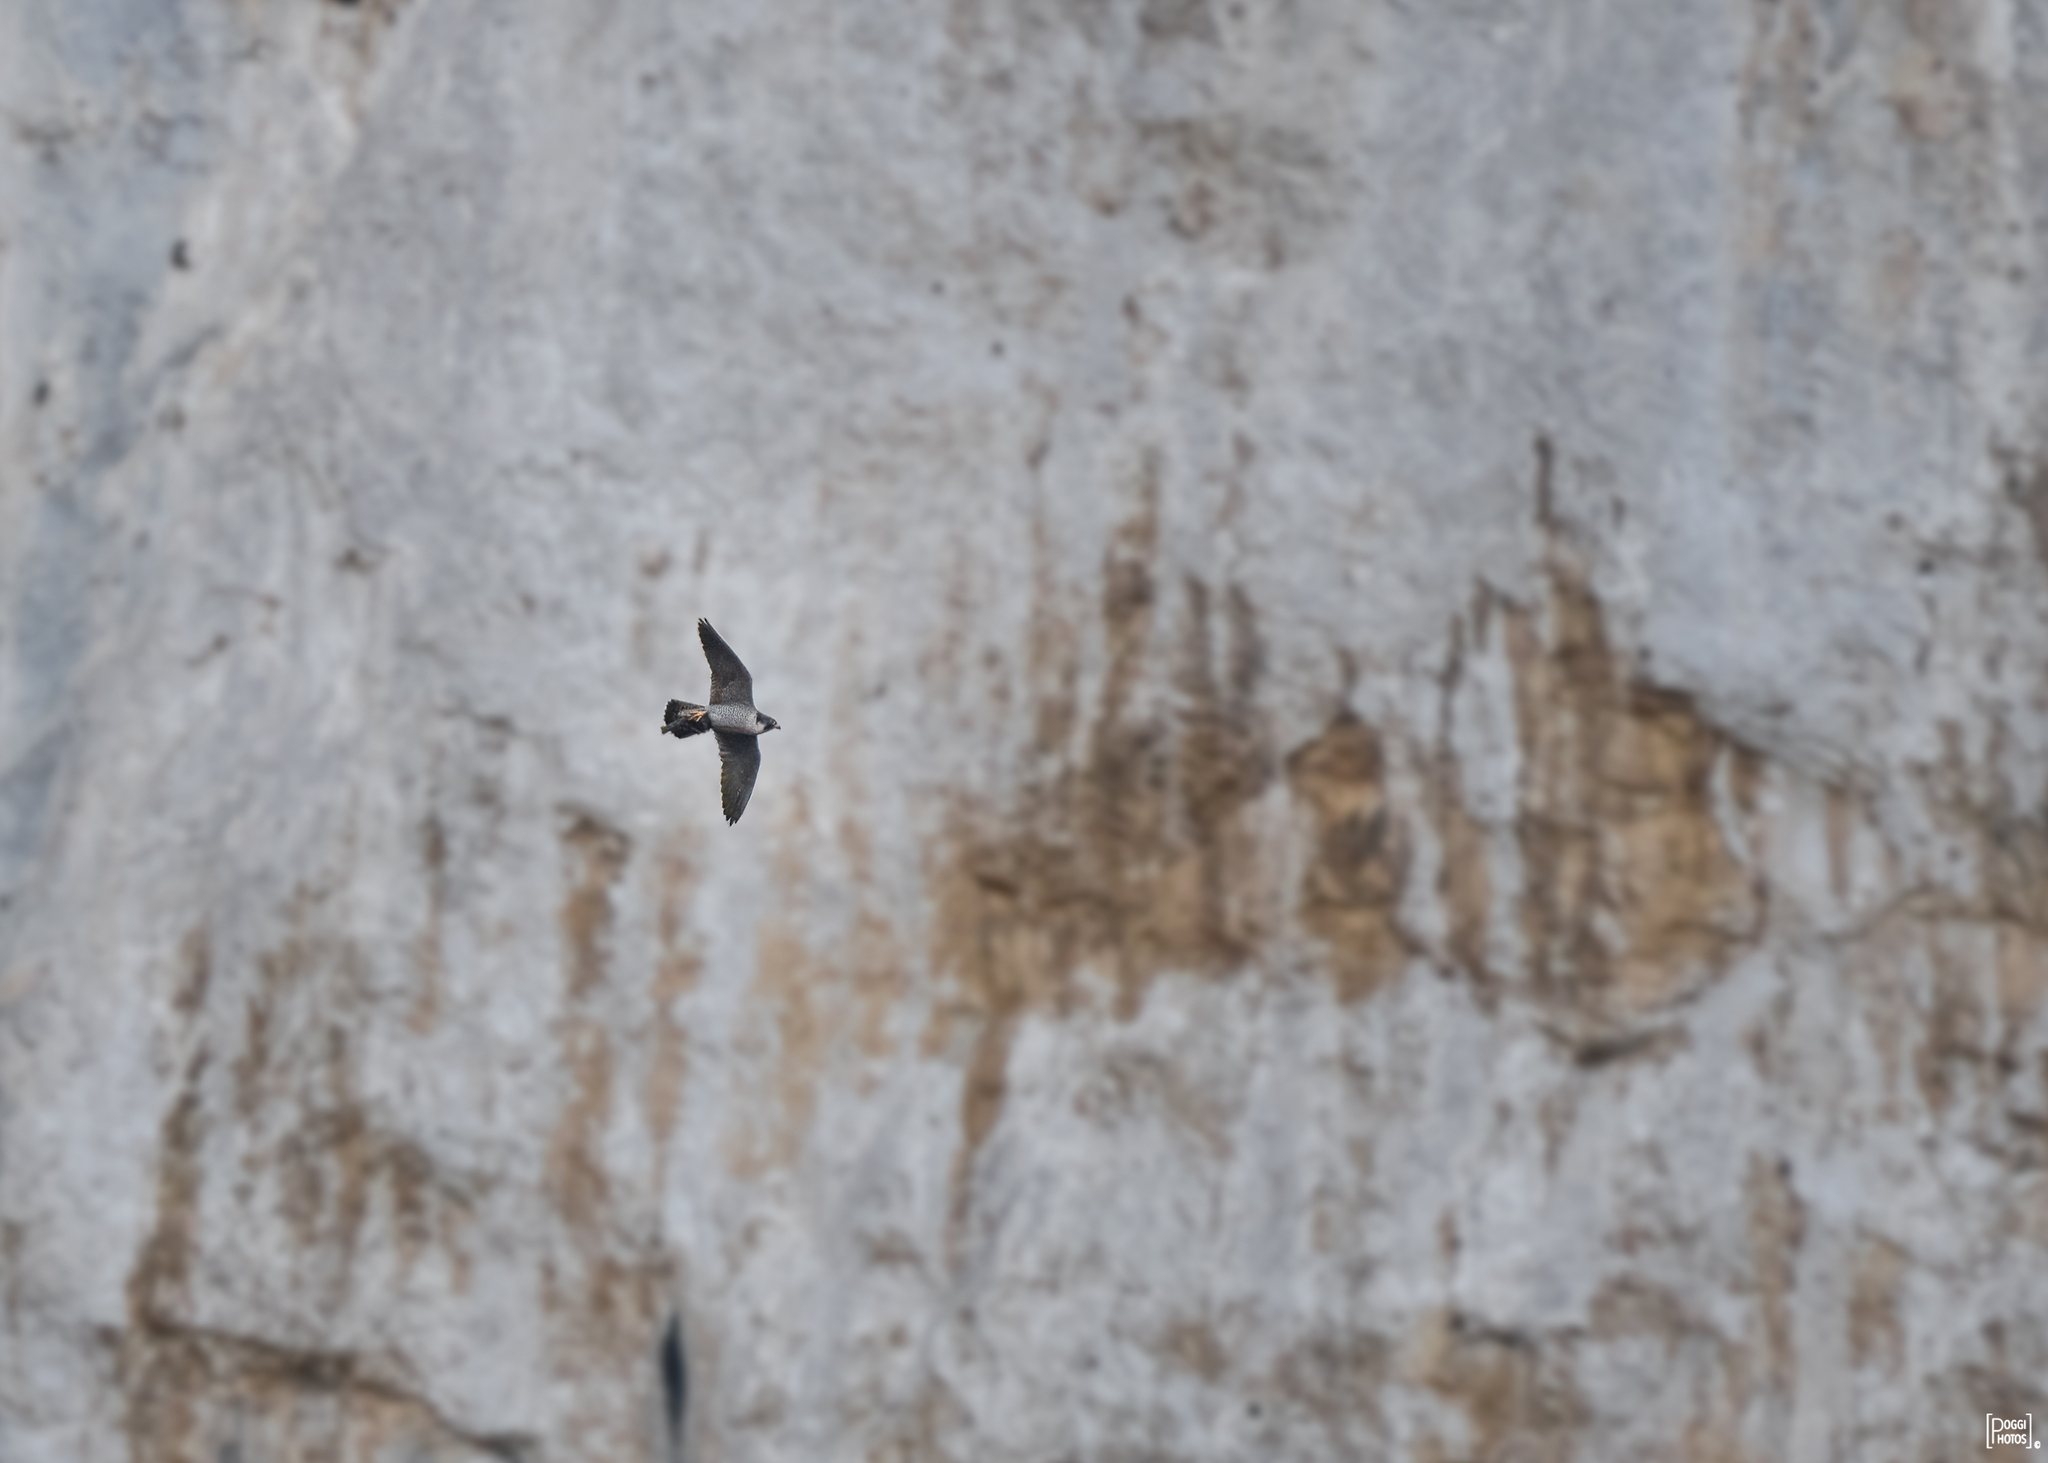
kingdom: Animalia
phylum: Chordata
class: Aves
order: Falconiformes
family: Falconidae
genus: Falco
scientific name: Falco peregrinus
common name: Peregrine falcon
